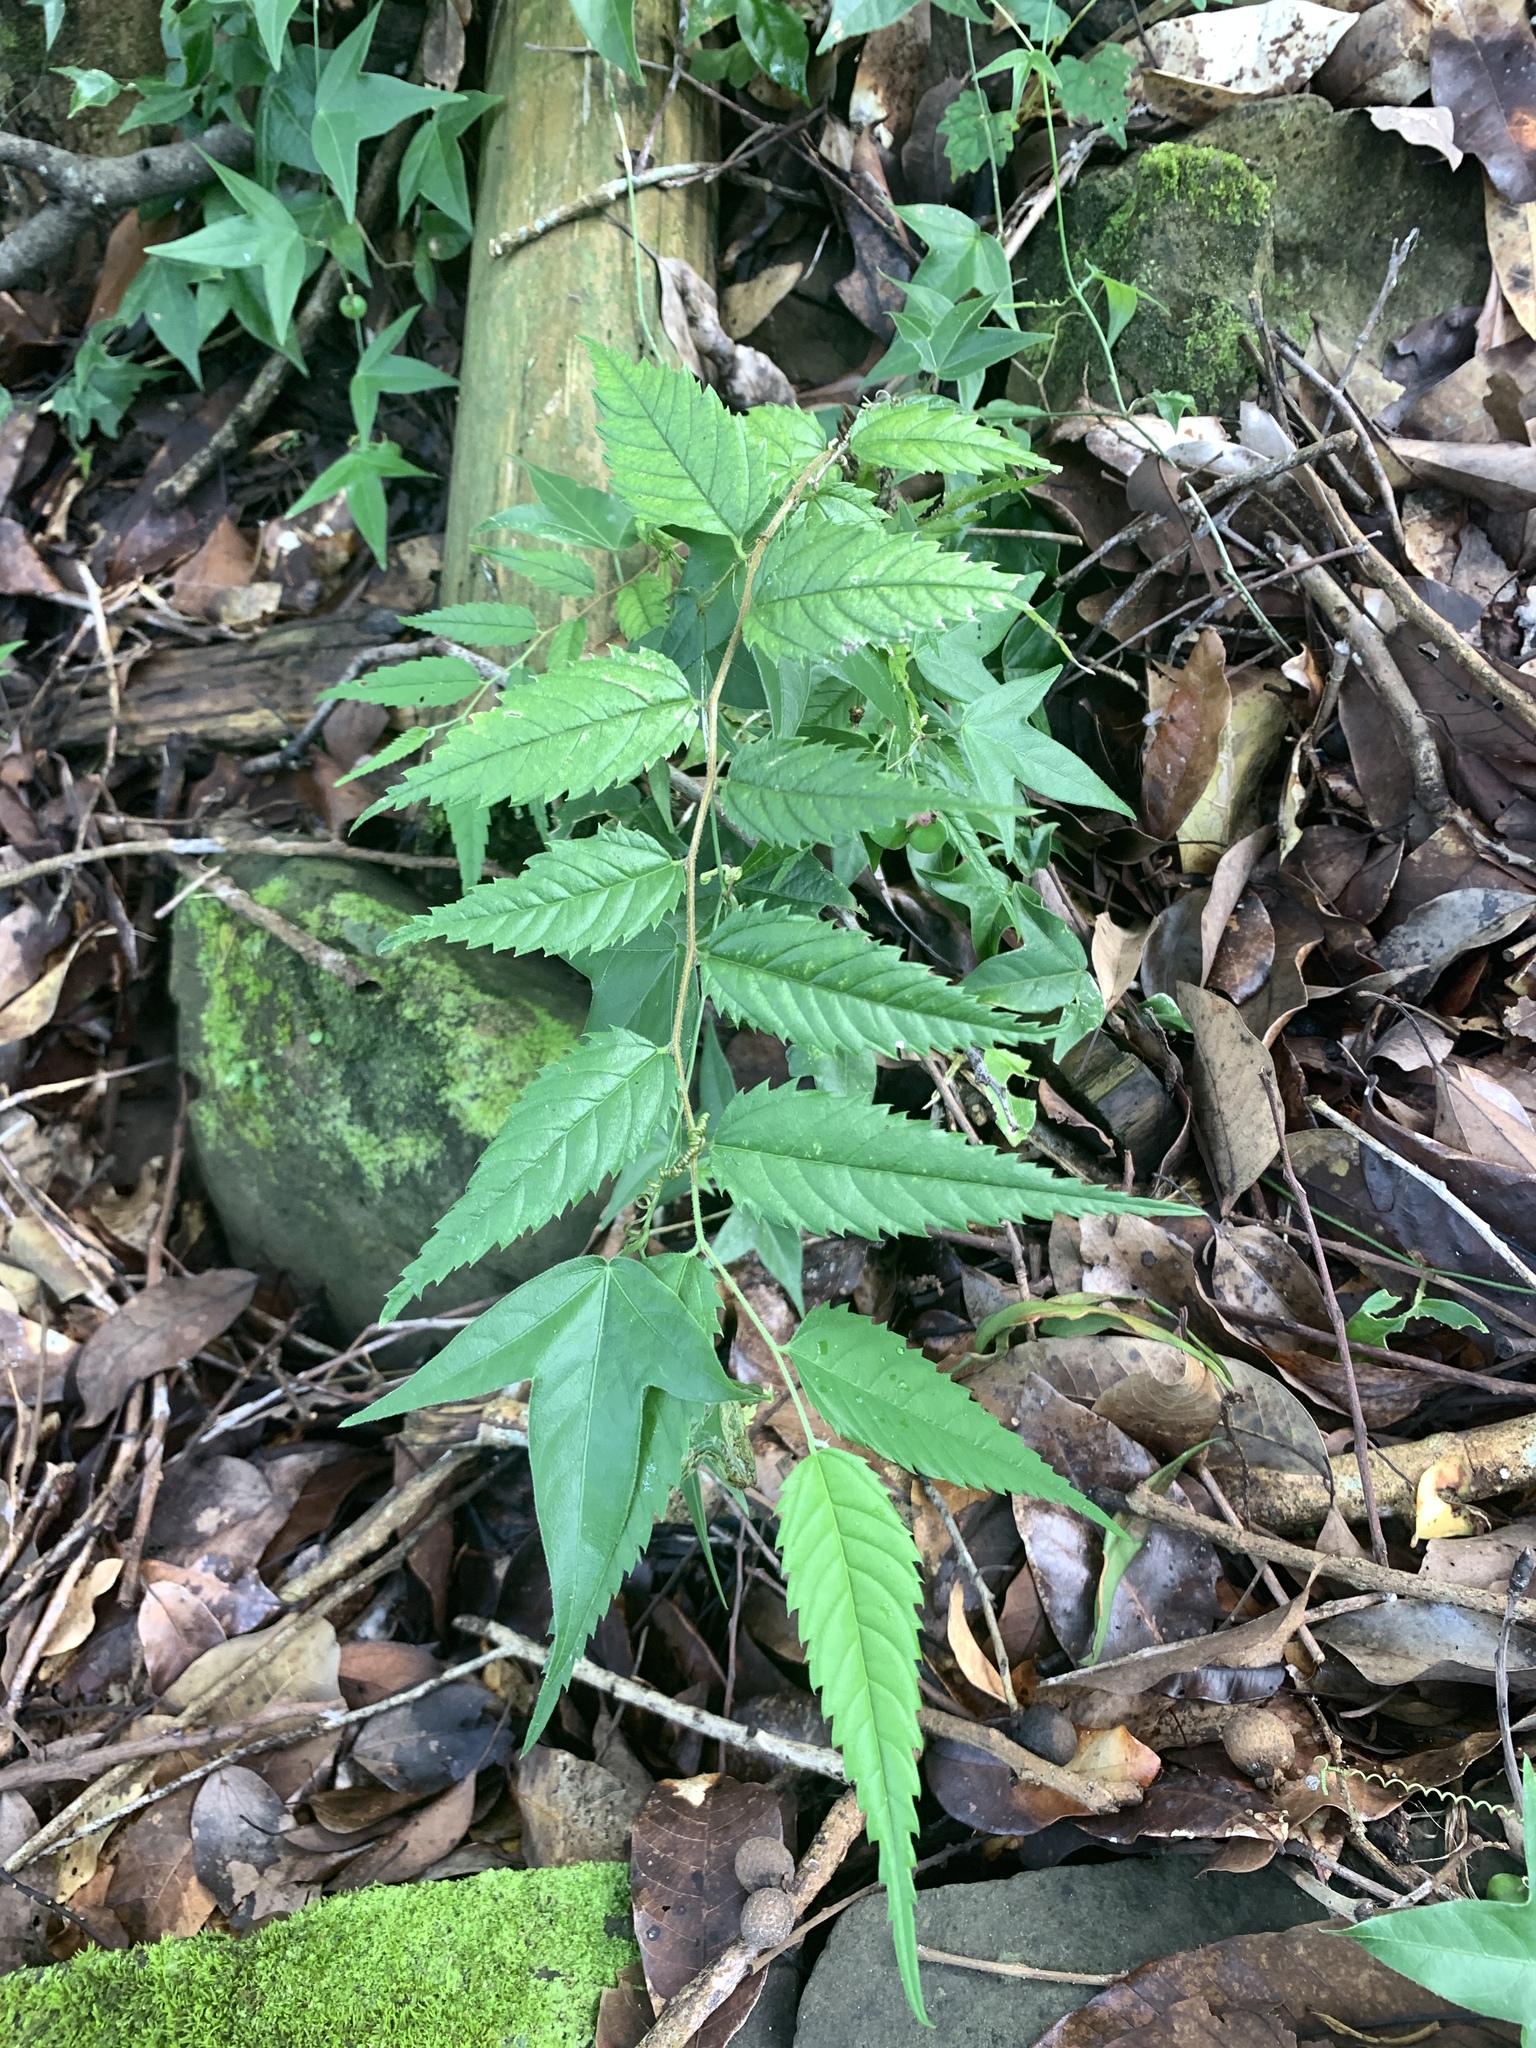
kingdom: Plantae
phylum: Tracheophyta
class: Magnoliopsida
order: Rosales
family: Cannabaceae
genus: Aphananthe
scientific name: Aphananthe aspera
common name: Mukutree
